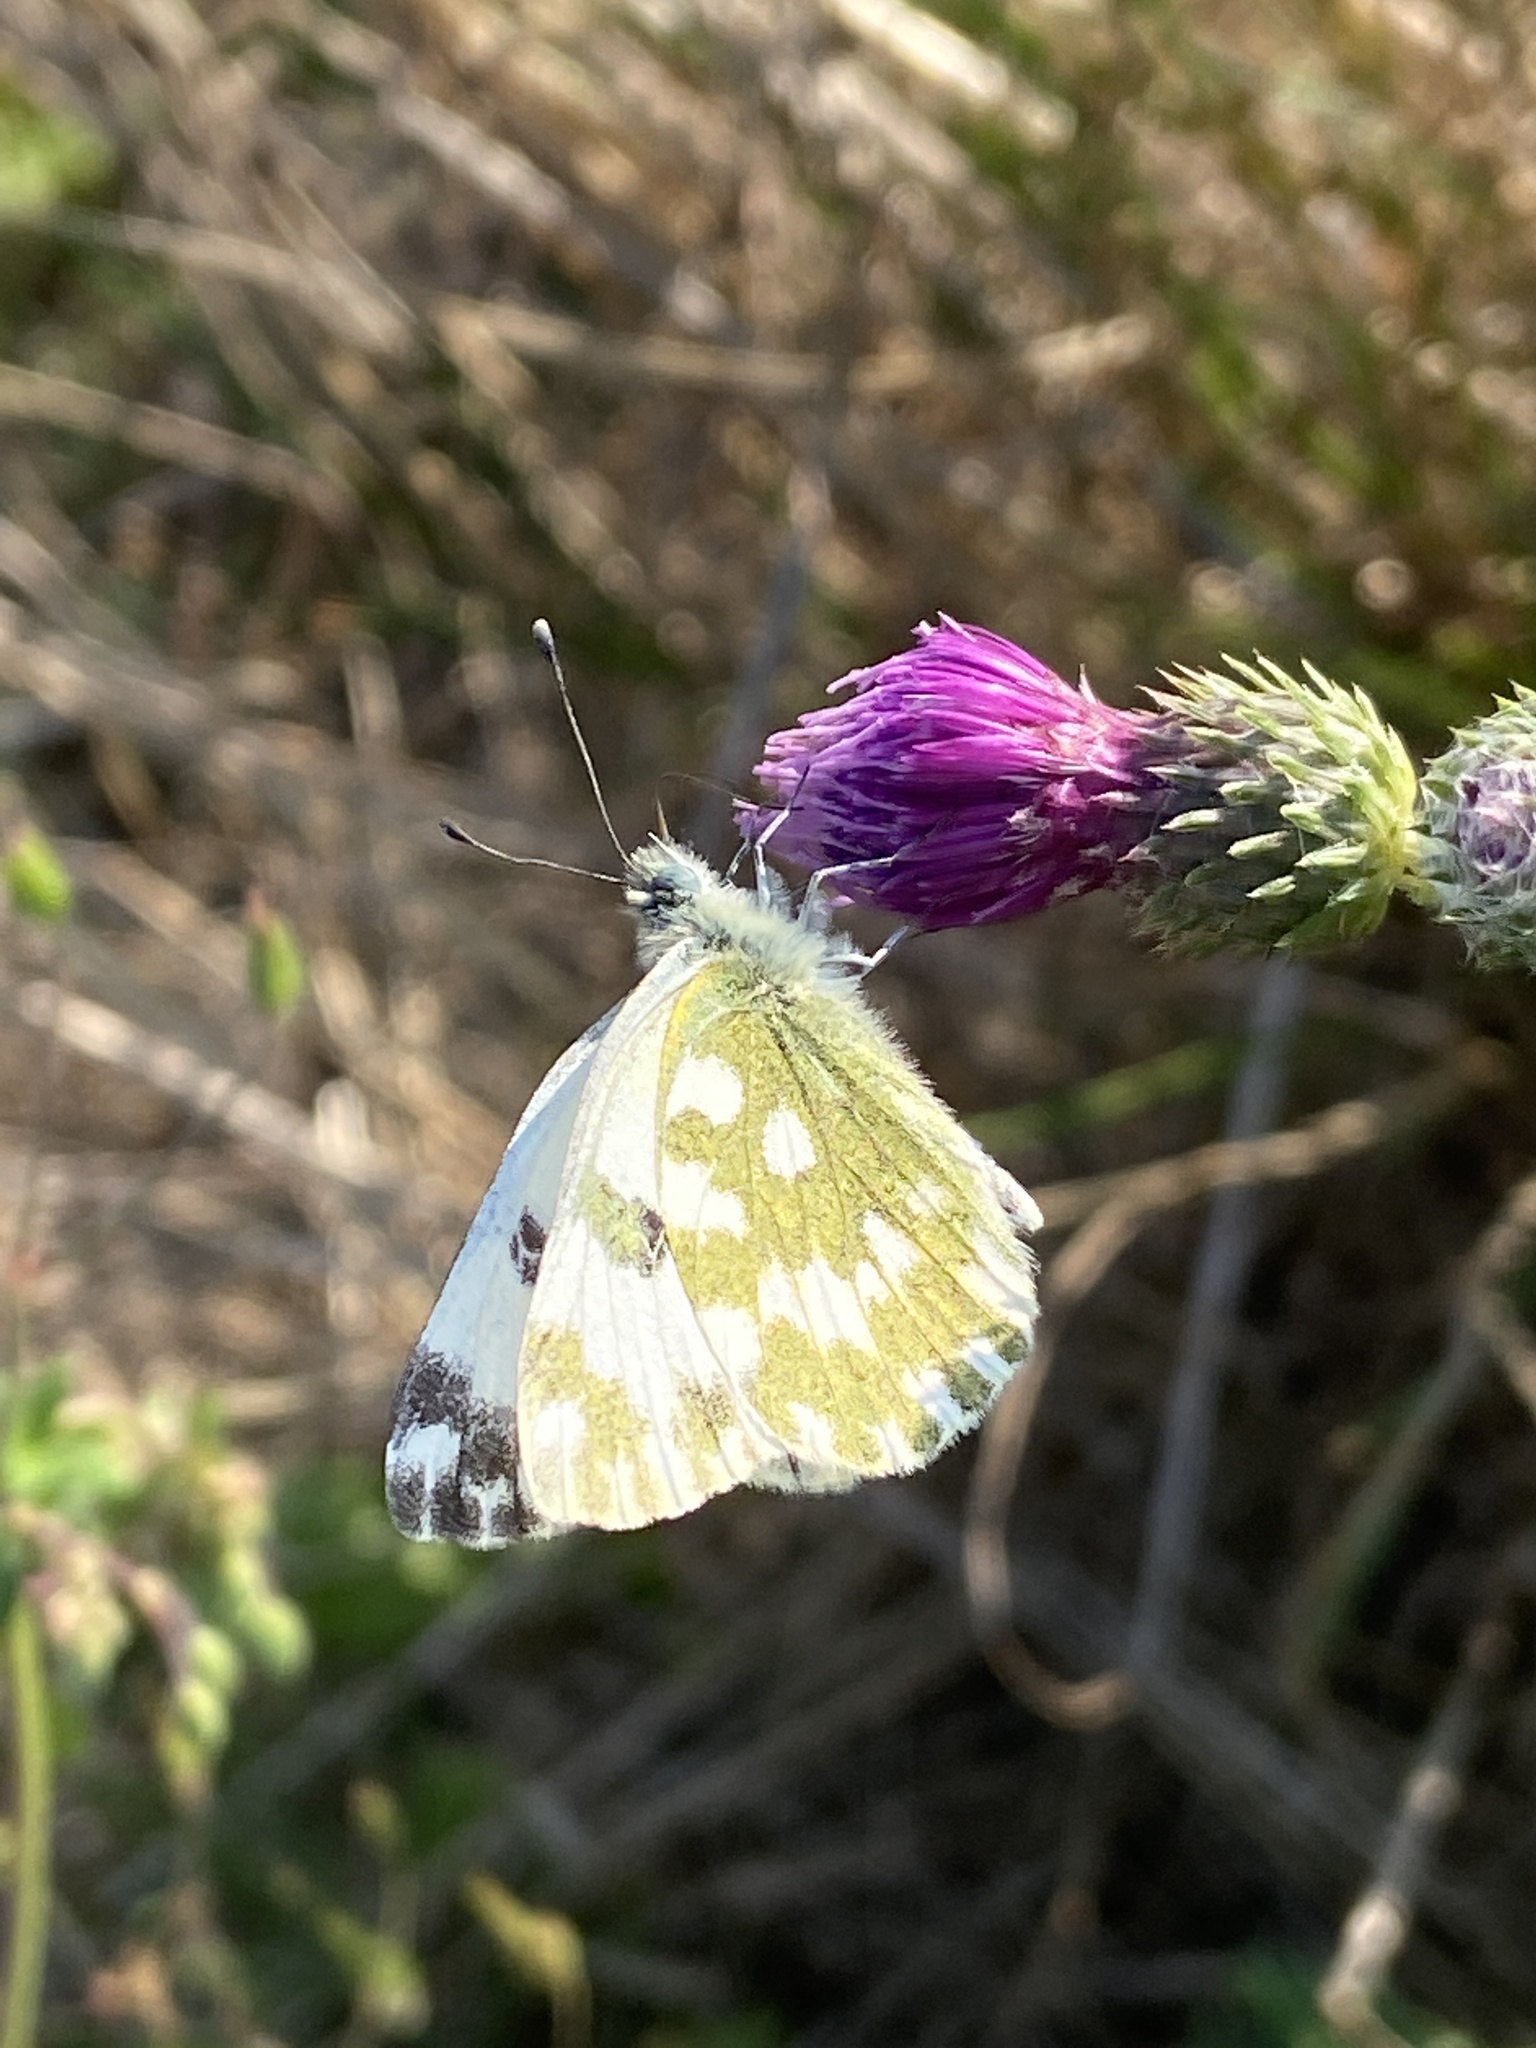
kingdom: Animalia
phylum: Arthropoda
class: Insecta
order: Lepidoptera
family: Pieridae
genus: Pontia
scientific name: Pontia edusa
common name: Eastern bath white
